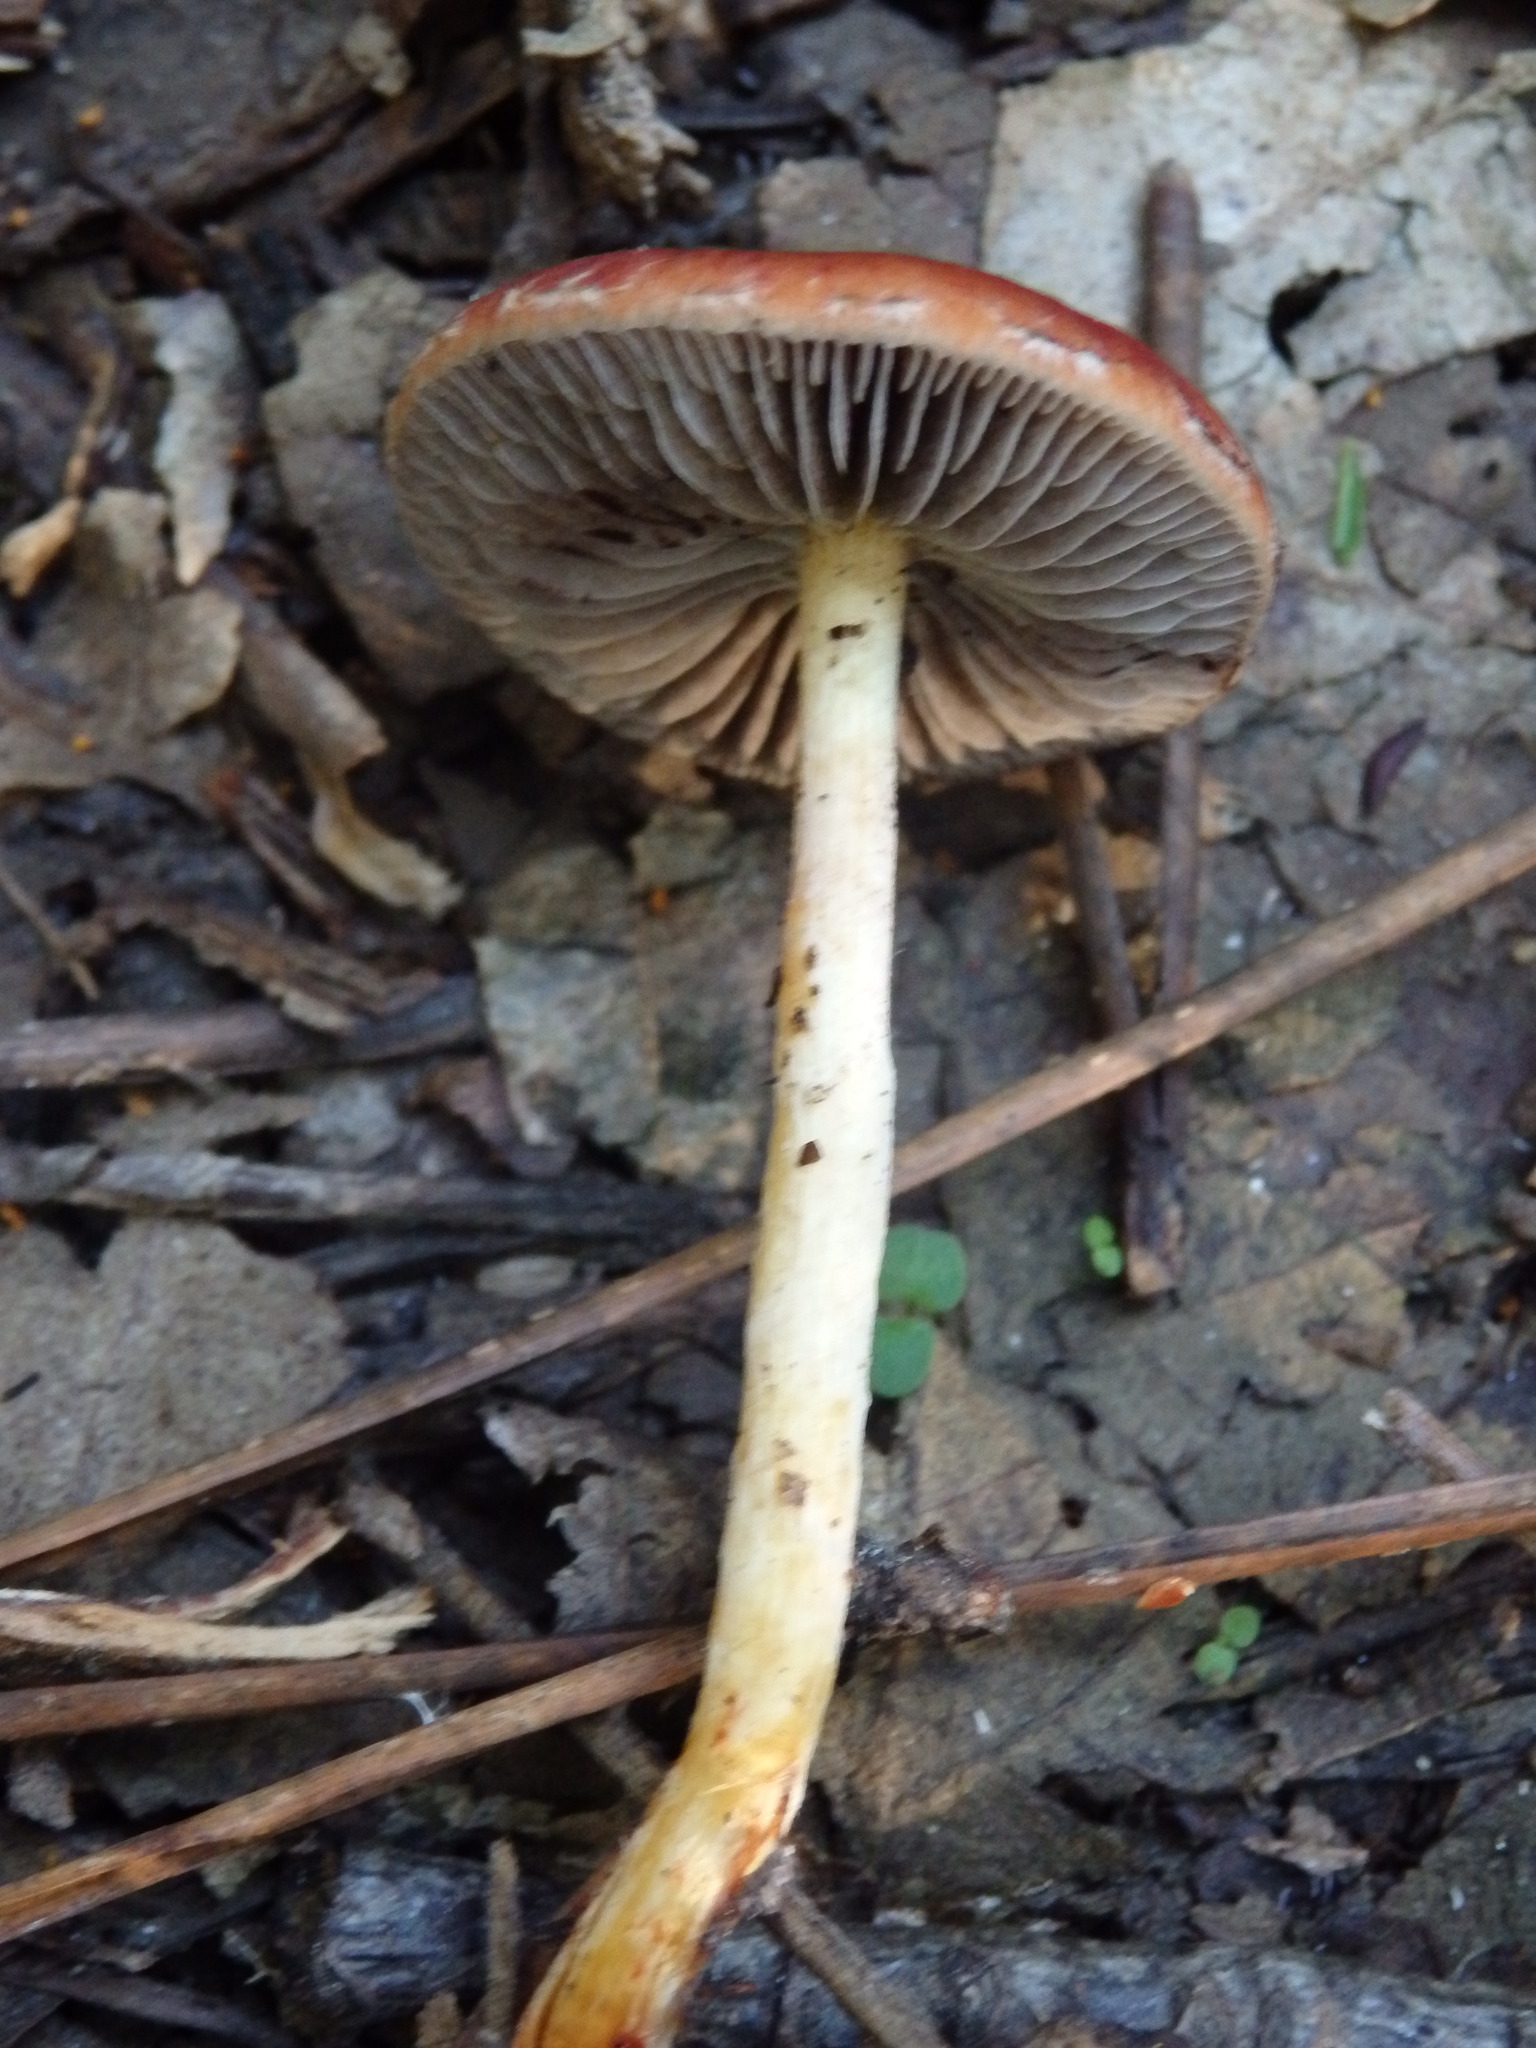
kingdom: Fungi
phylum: Basidiomycota
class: Agaricomycetes
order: Agaricales
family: Strophariaceae
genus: Leratiomyces
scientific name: Leratiomyces ceres
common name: Redlead roundhead
